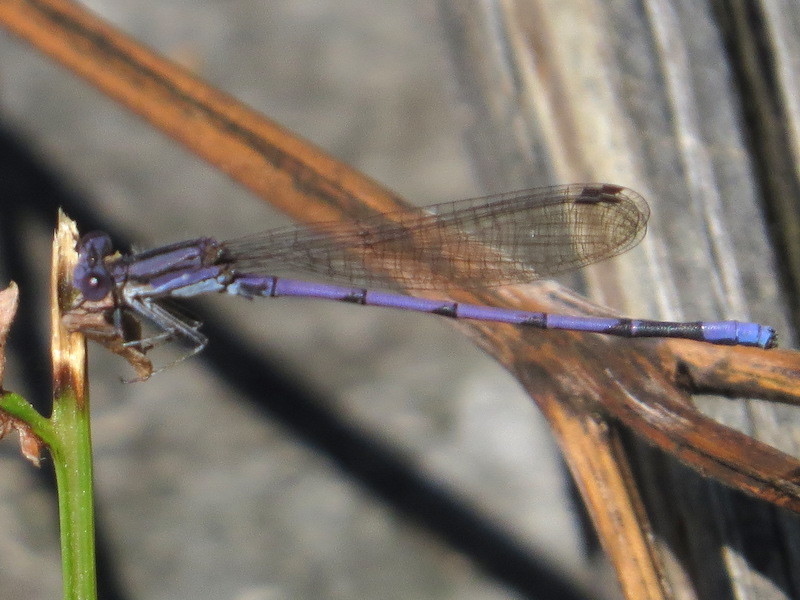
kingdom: Animalia
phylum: Arthropoda
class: Insecta
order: Odonata
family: Coenagrionidae
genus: Argia
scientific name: Argia fumipennis
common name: Variable dancer
